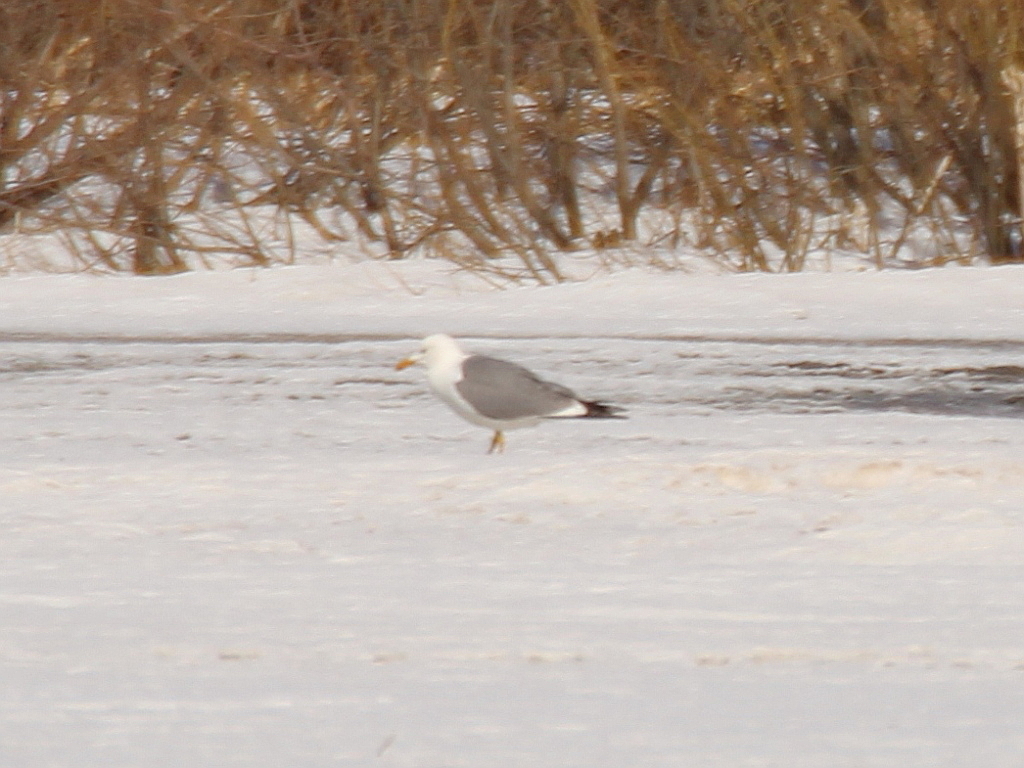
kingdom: Animalia
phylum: Chordata
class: Aves
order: Charadriiformes
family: Laridae
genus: Larus
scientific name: Larus fuscus
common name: Lesser black-backed gull
